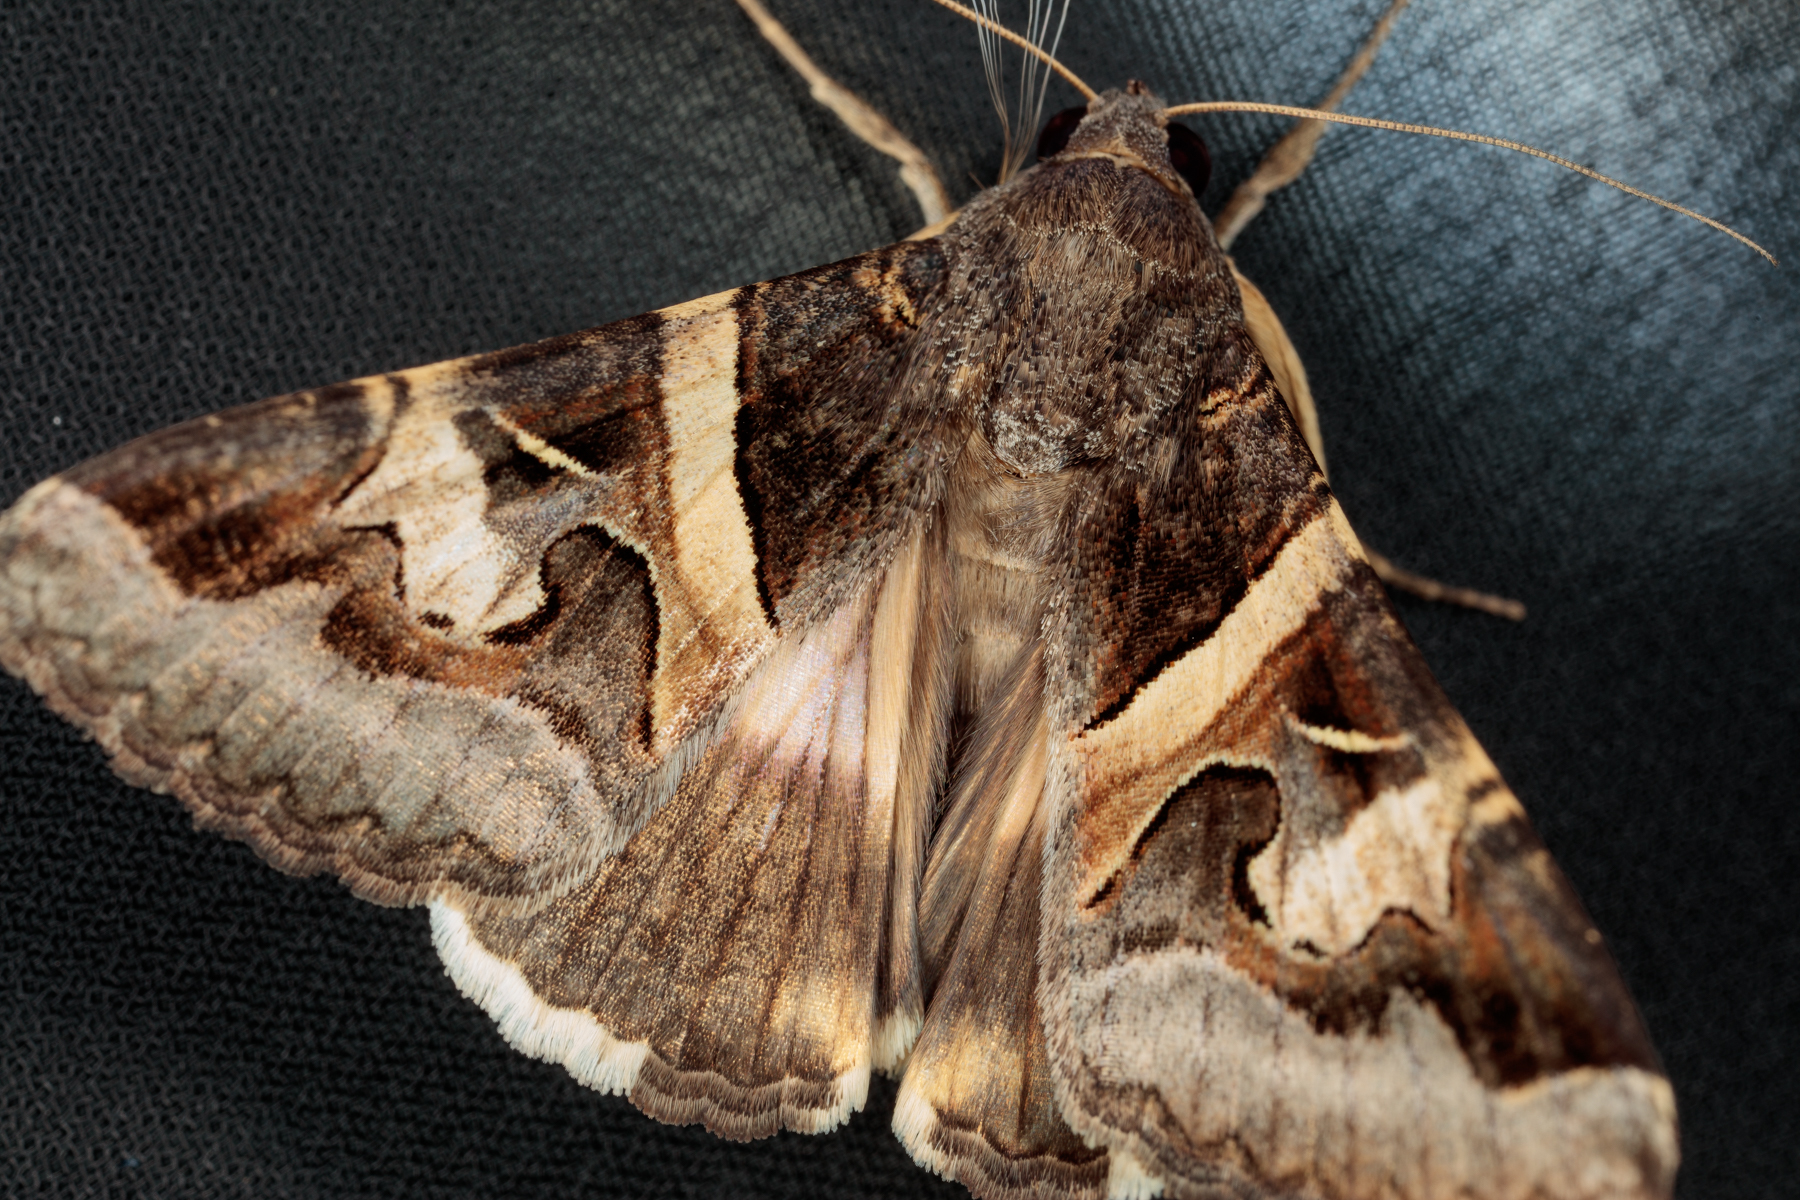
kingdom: Animalia
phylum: Arthropoda
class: Insecta
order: Lepidoptera
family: Erebidae
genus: Melipotis
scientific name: Melipotis indomita
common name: Moth
